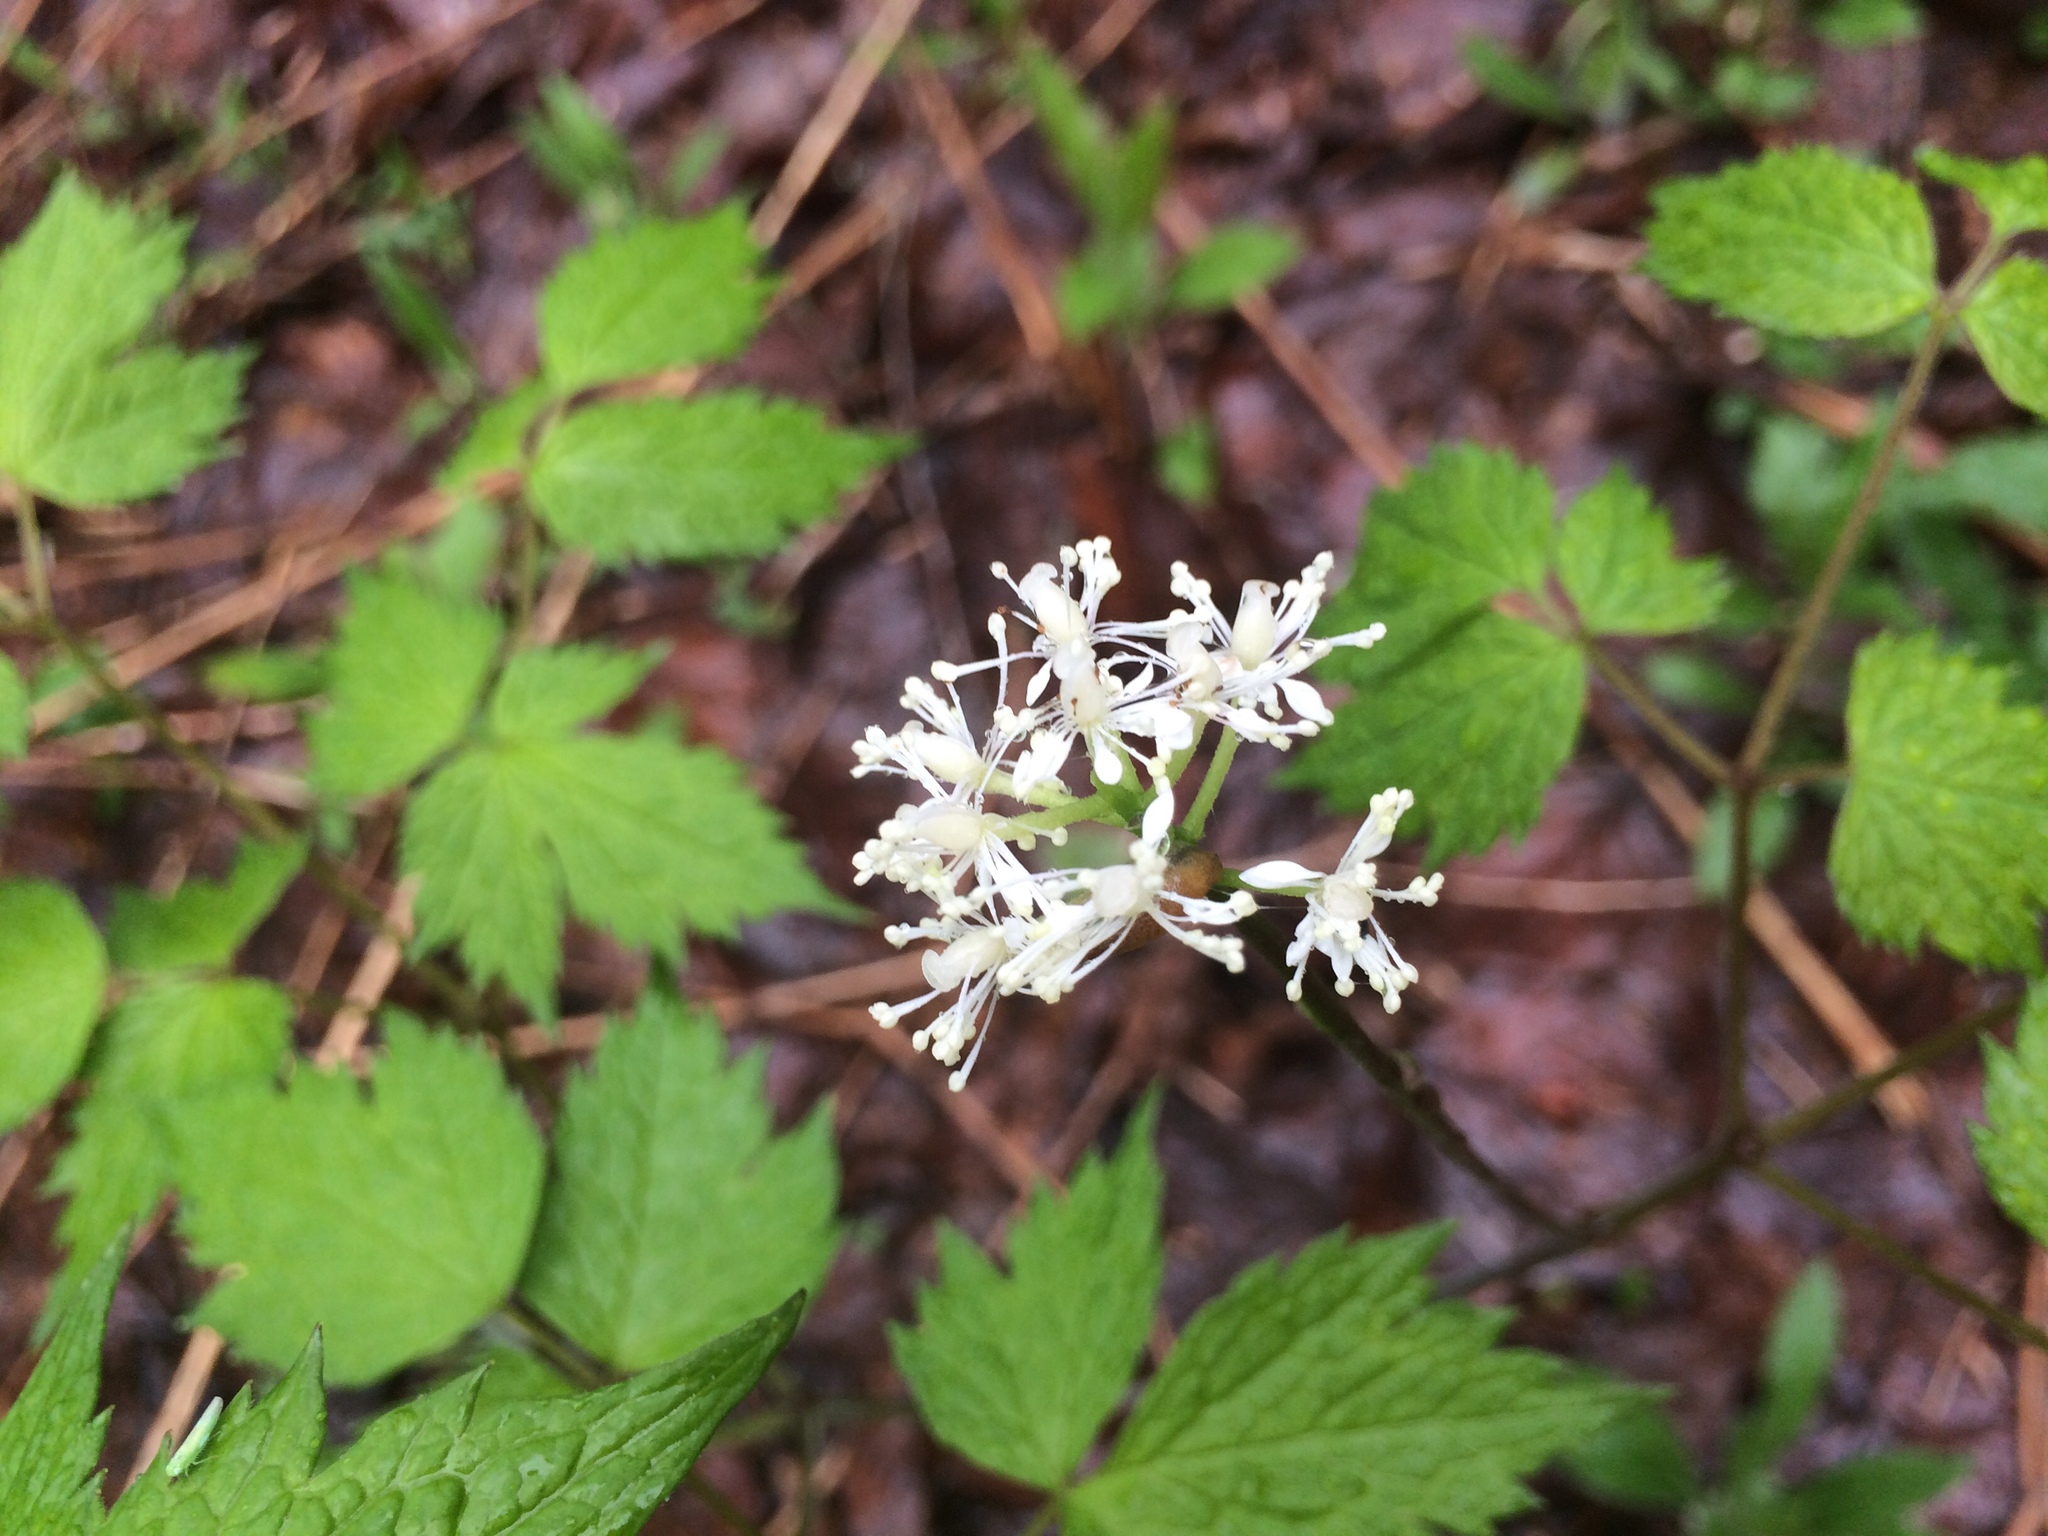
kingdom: Plantae
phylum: Tracheophyta
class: Magnoliopsida
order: Ranunculales
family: Ranunculaceae
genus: Actaea
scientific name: Actaea rubra
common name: Red baneberry
